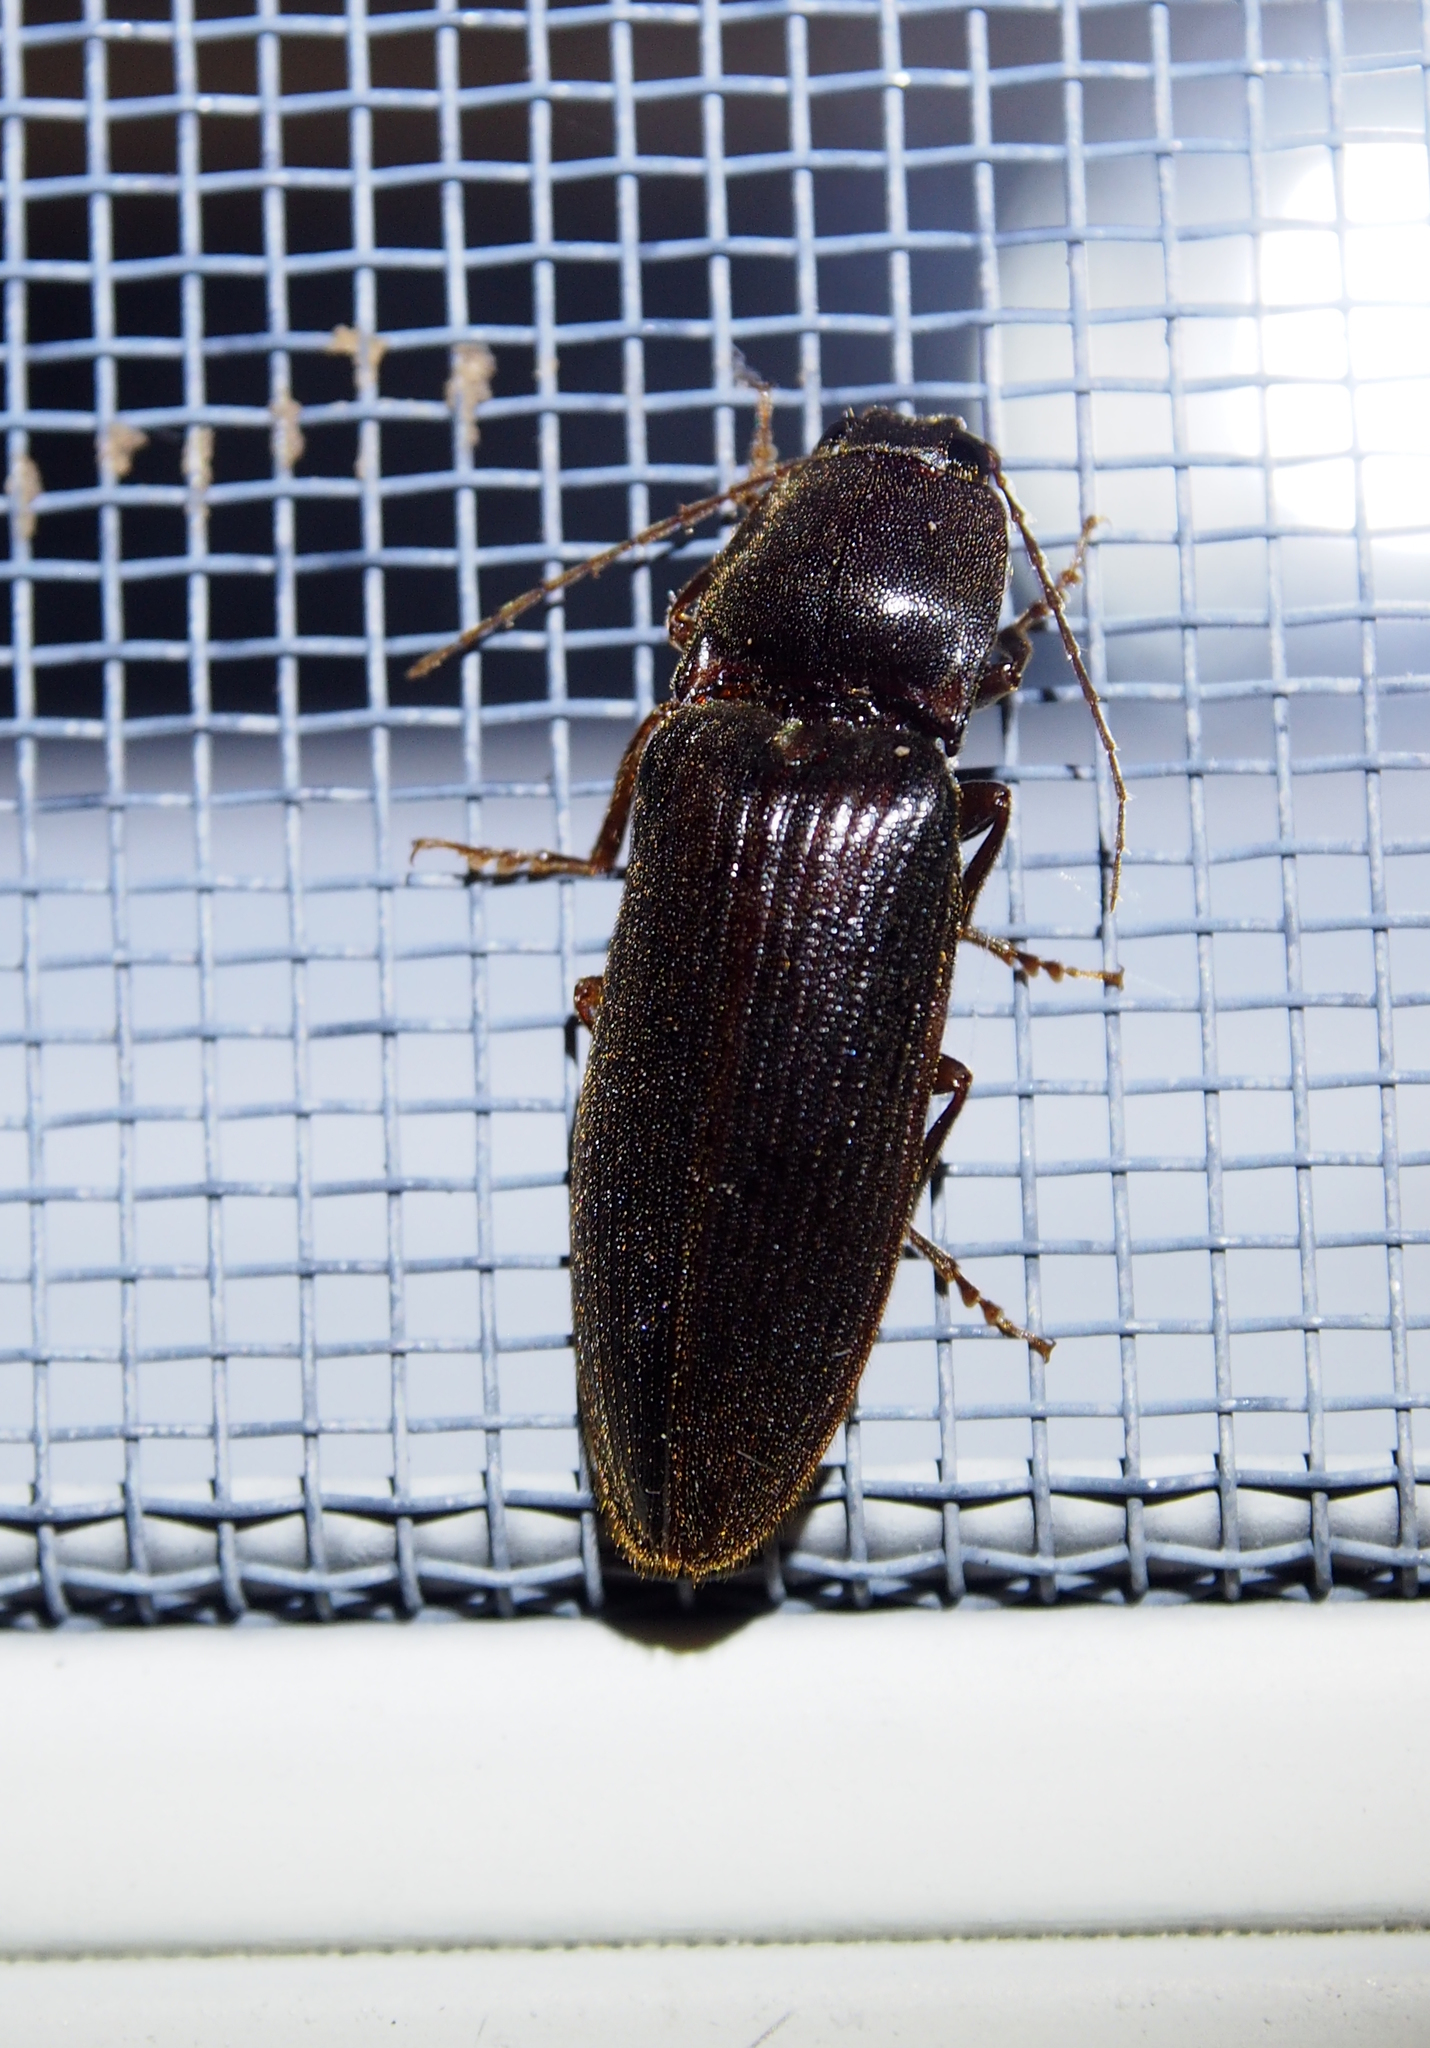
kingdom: Animalia
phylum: Arthropoda
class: Insecta
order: Coleoptera
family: Elateridae
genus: Hemicrepidius
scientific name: Hemicrepidius
